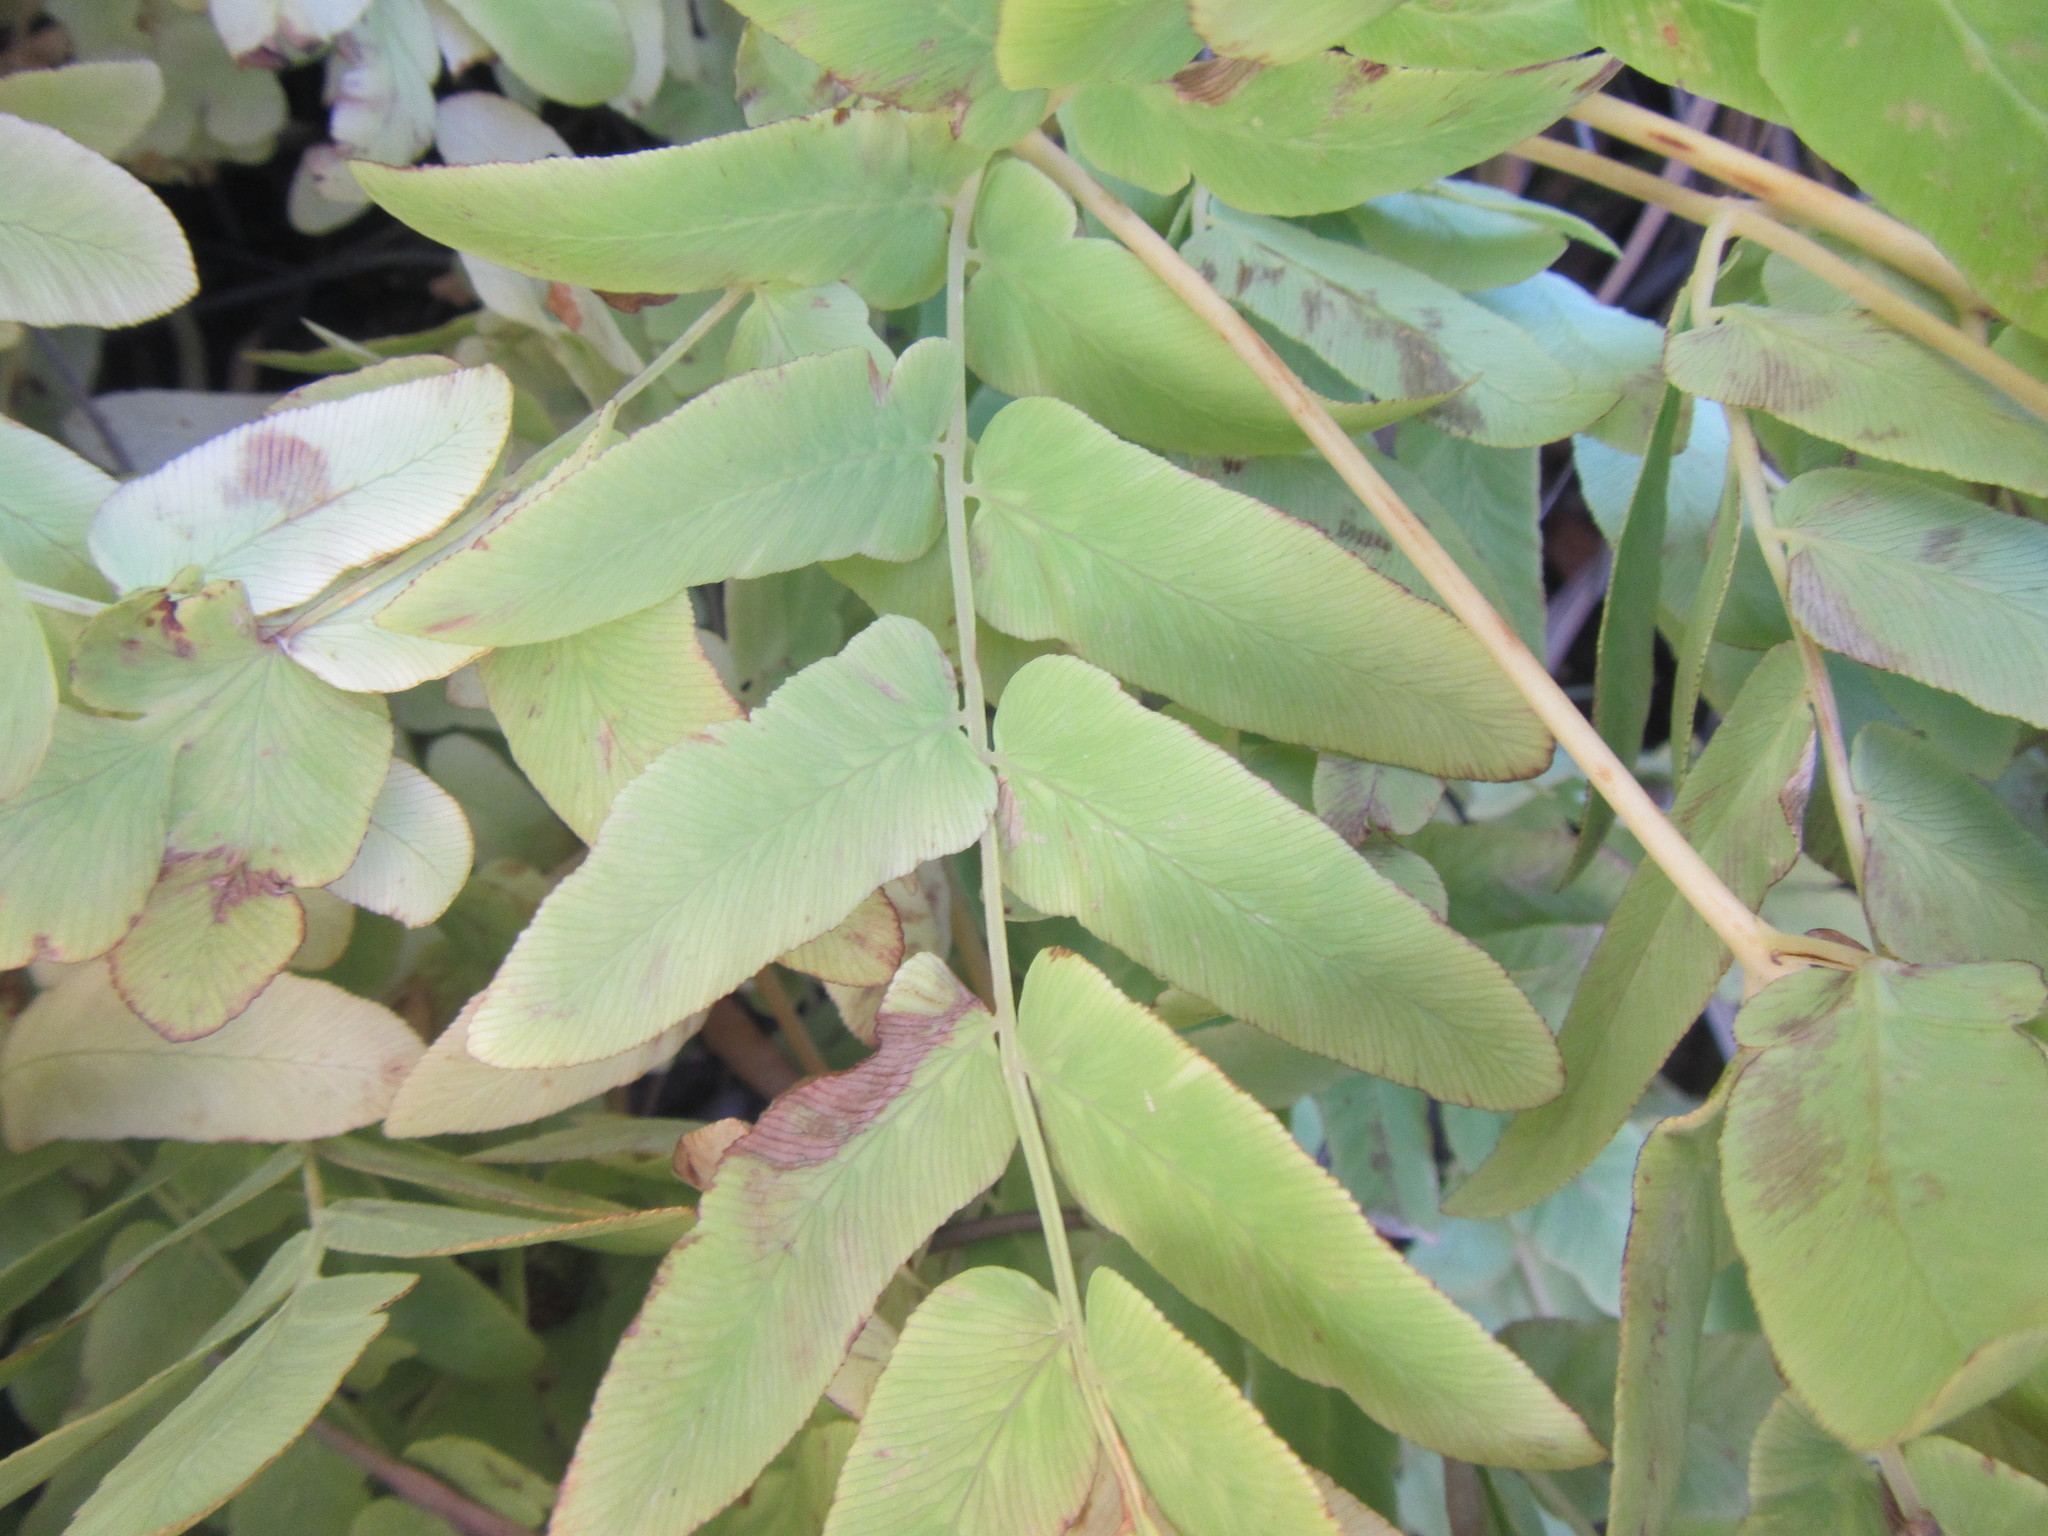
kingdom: Plantae
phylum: Tracheophyta
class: Polypodiopsida
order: Osmundales
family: Osmundaceae
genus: Osmunda
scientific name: Osmunda acuta
